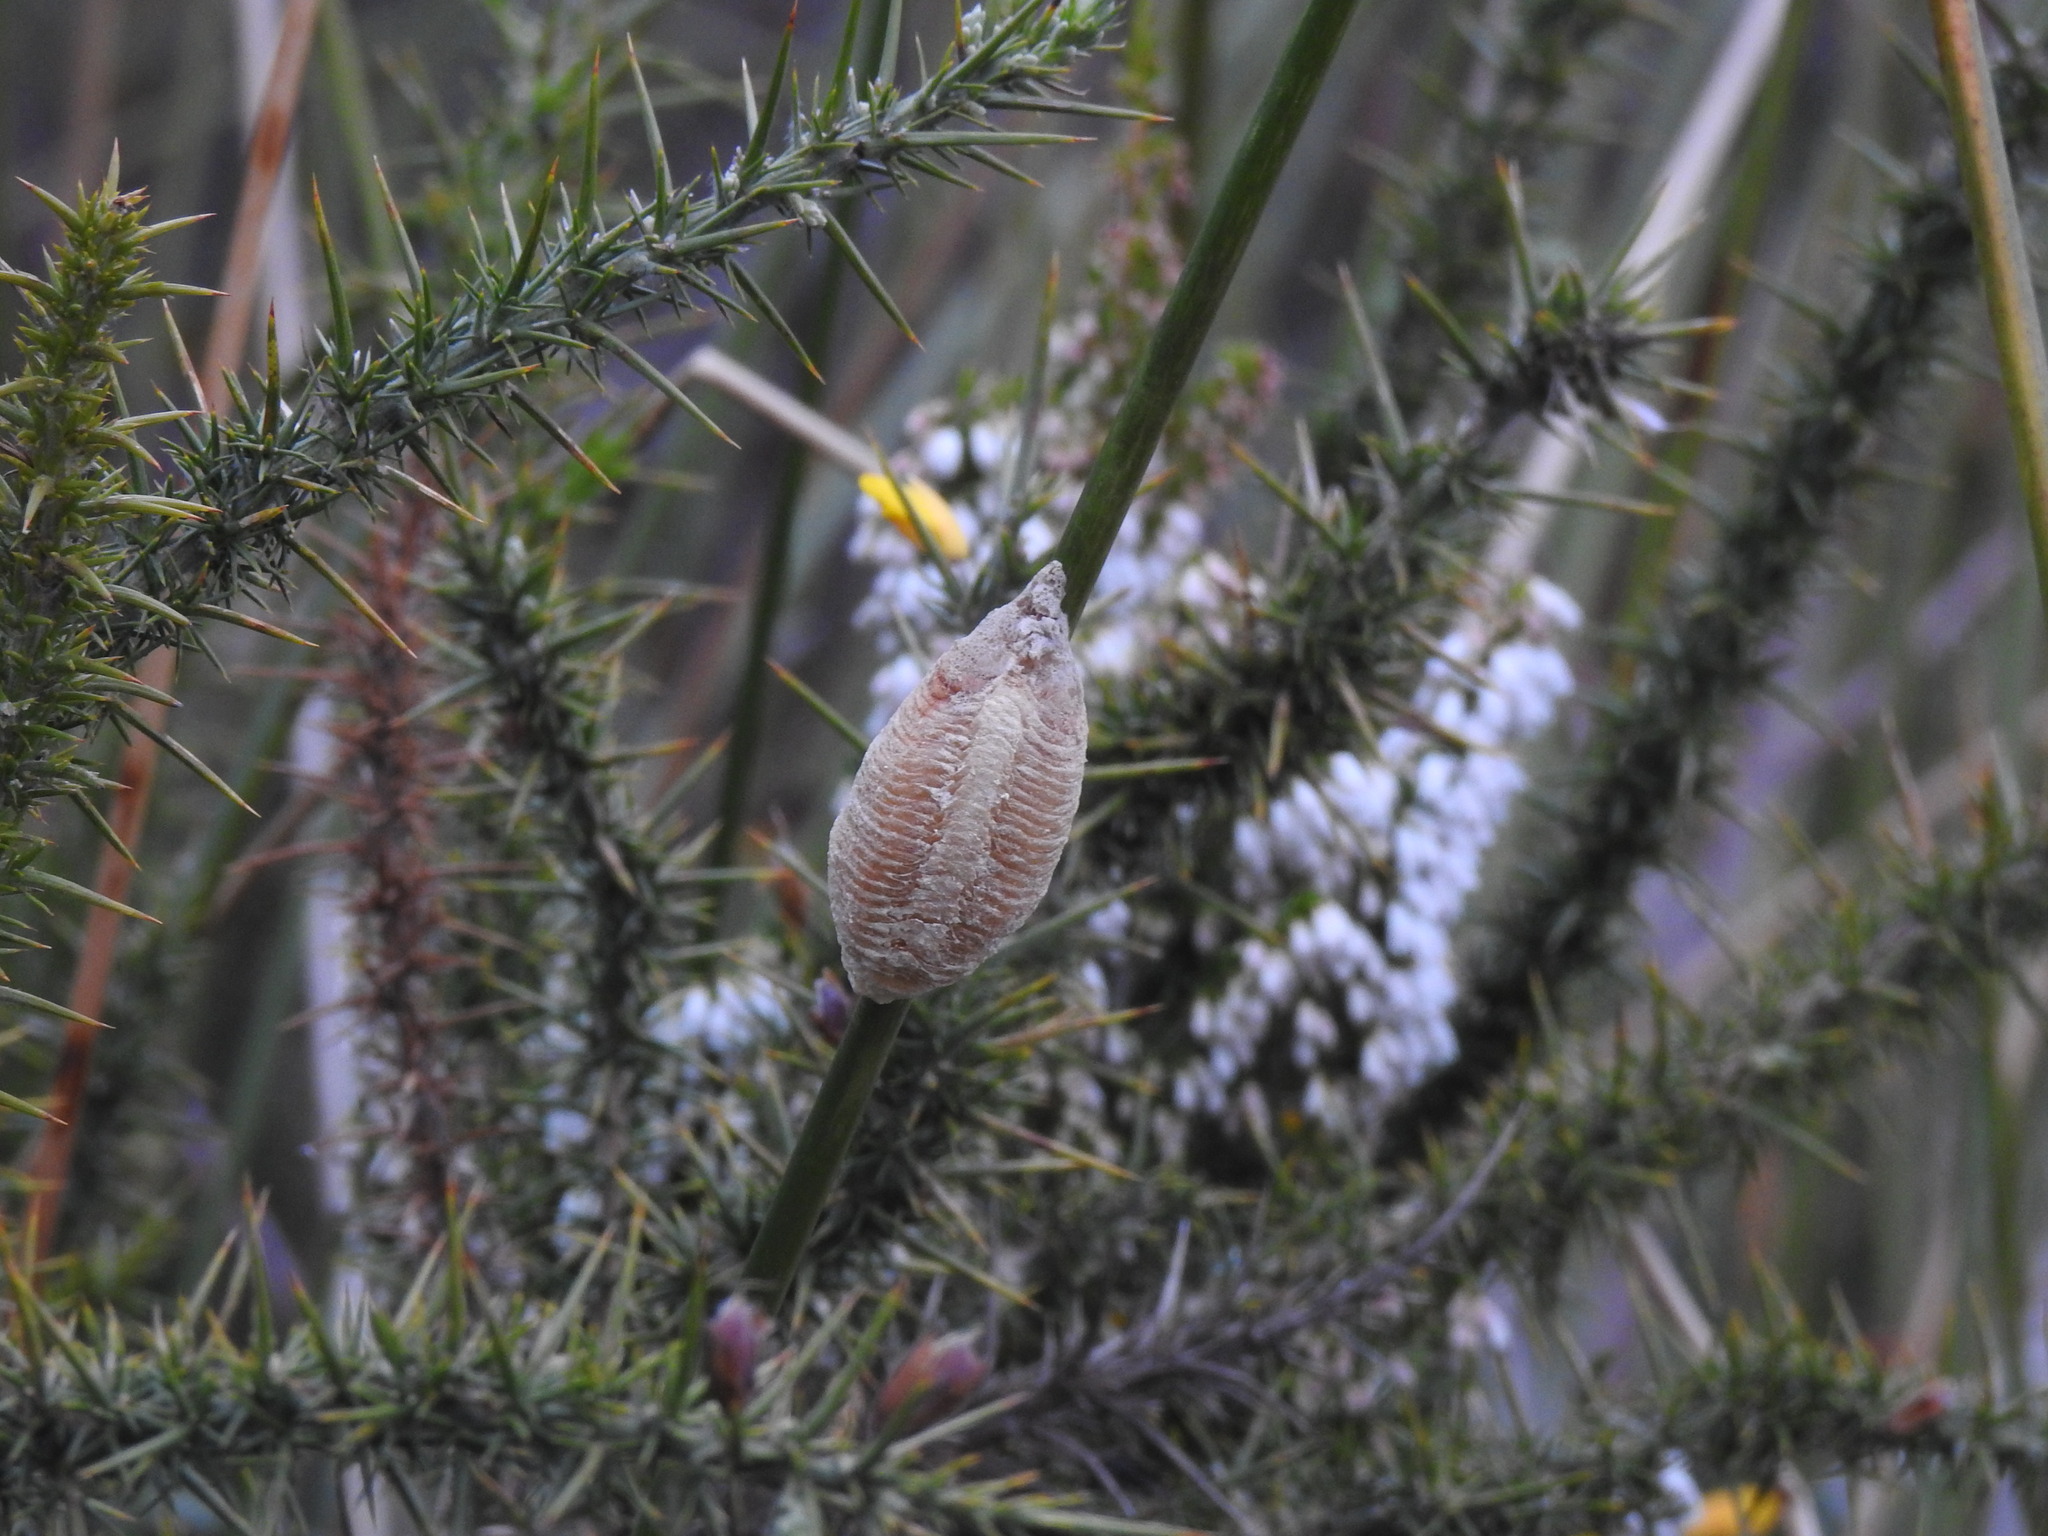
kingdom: Animalia
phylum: Arthropoda
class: Insecta
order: Mantodea
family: Mantidae
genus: Mantis
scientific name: Mantis religiosa
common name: Praying mantis
